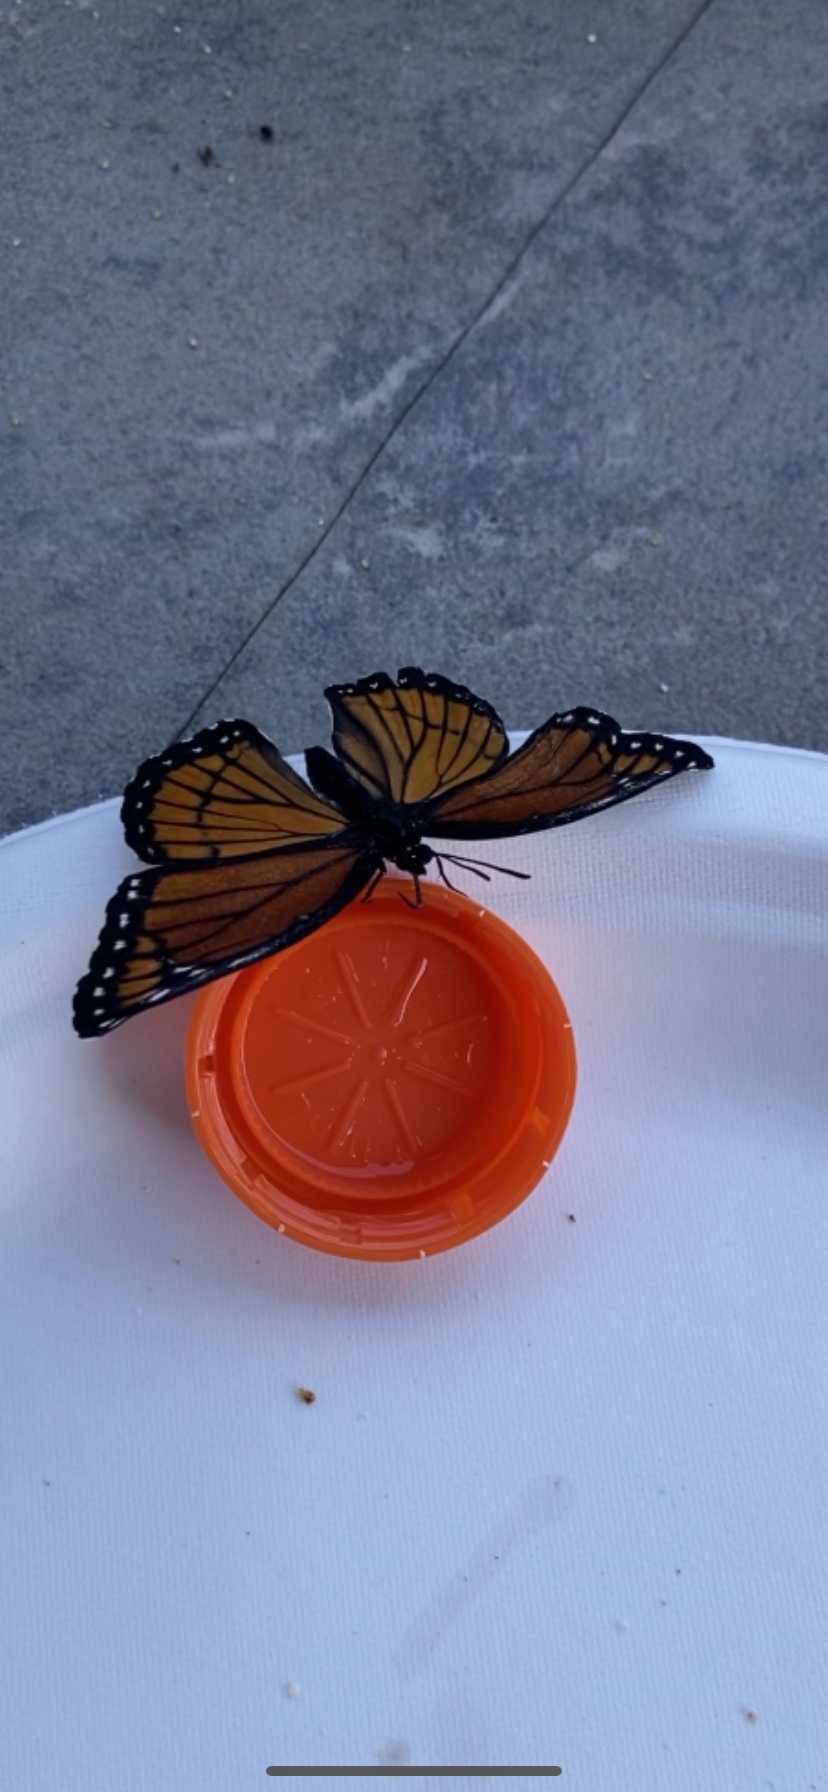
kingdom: Animalia
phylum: Arthropoda
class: Insecta
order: Lepidoptera
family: Nymphalidae
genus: Limenitis
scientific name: Limenitis archippus
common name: Viceroy
